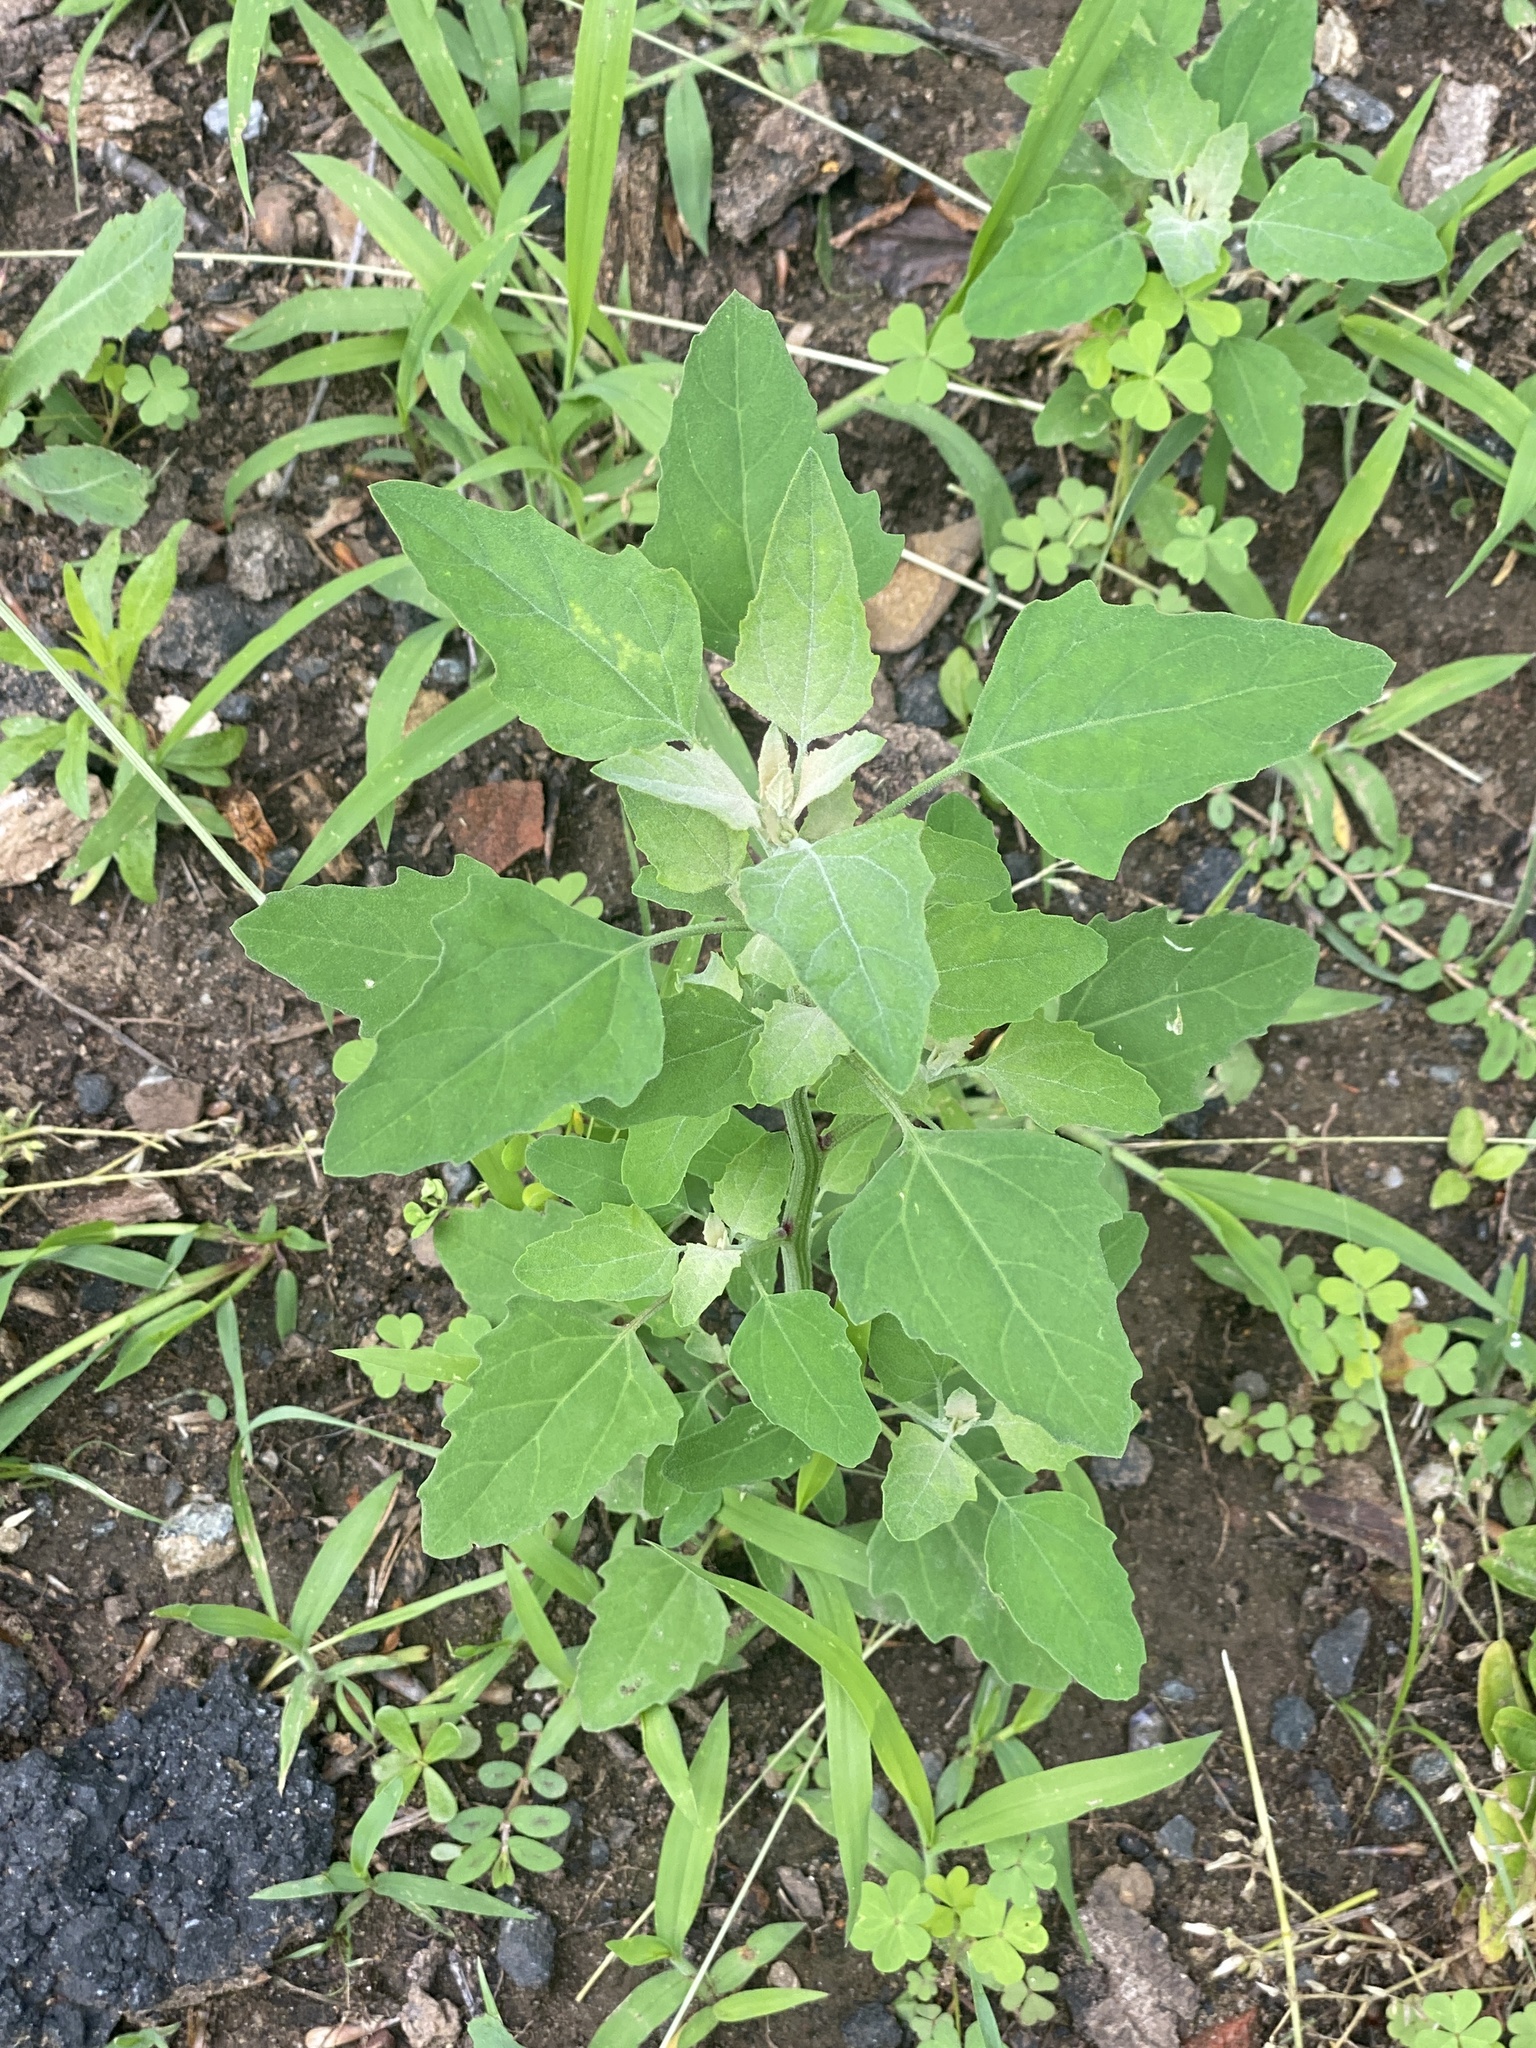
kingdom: Plantae
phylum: Tracheophyta
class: Magnoliopsida
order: Caryophyllales
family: Amaranthaceae
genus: Chenopodium
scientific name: Chenopodium album
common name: Fat-hen
